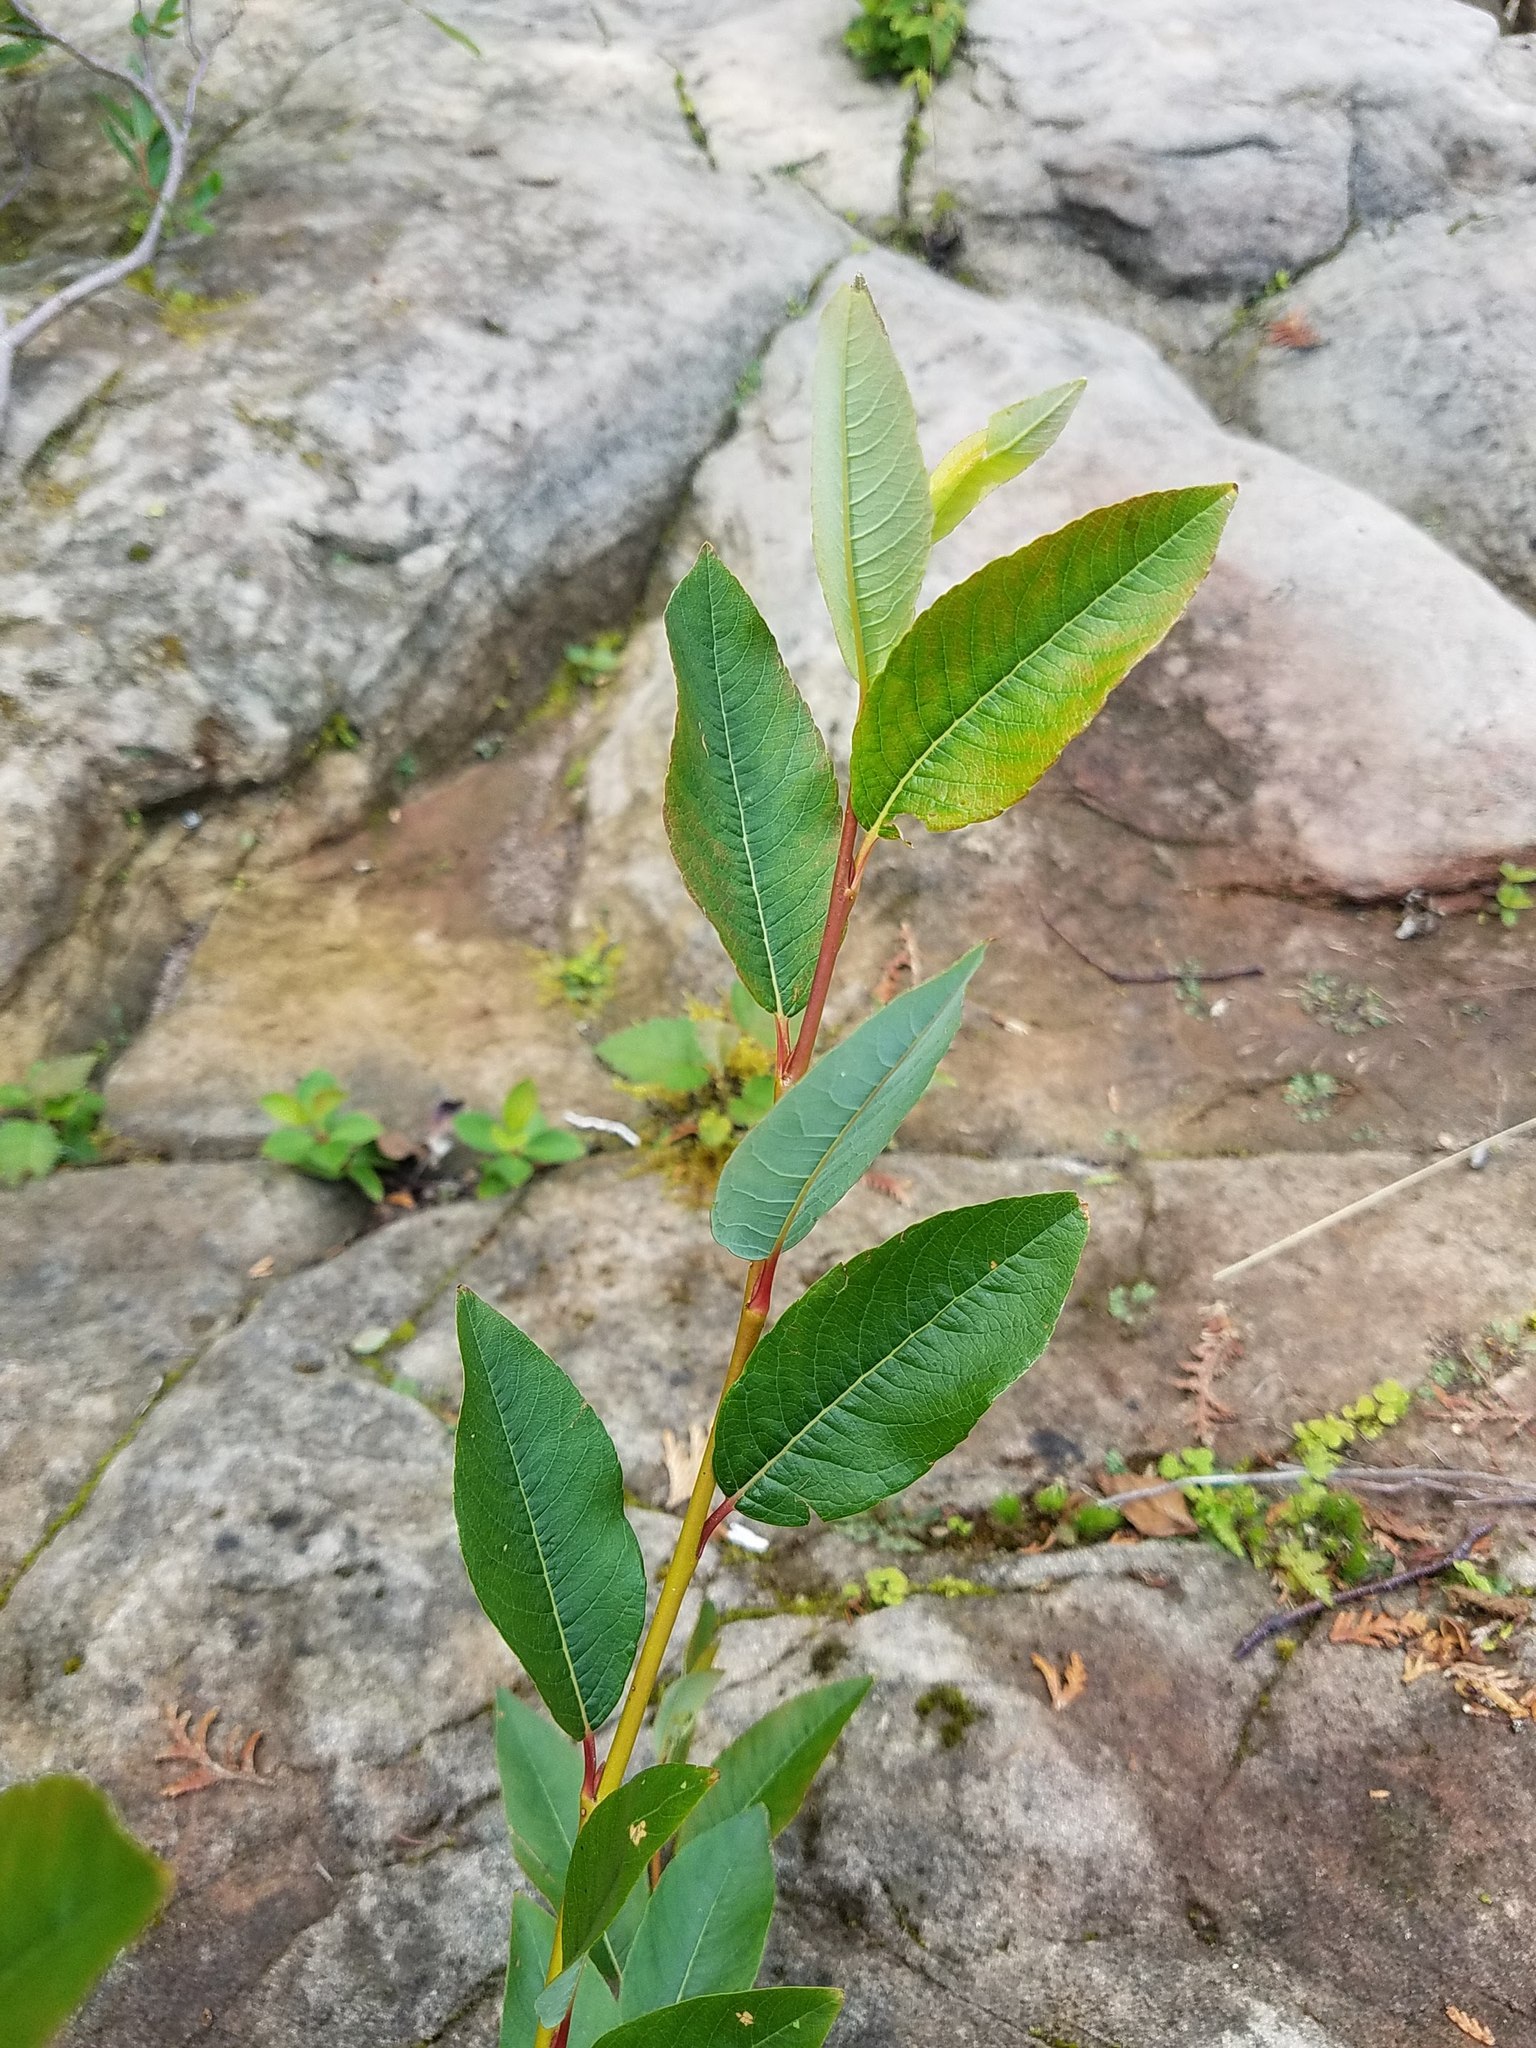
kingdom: Plantae
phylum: Tracheophyta
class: Magnoliopsida
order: Malpighiales
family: Salicaceae
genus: Salix
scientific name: Salix planifolia
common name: Mountain willow
